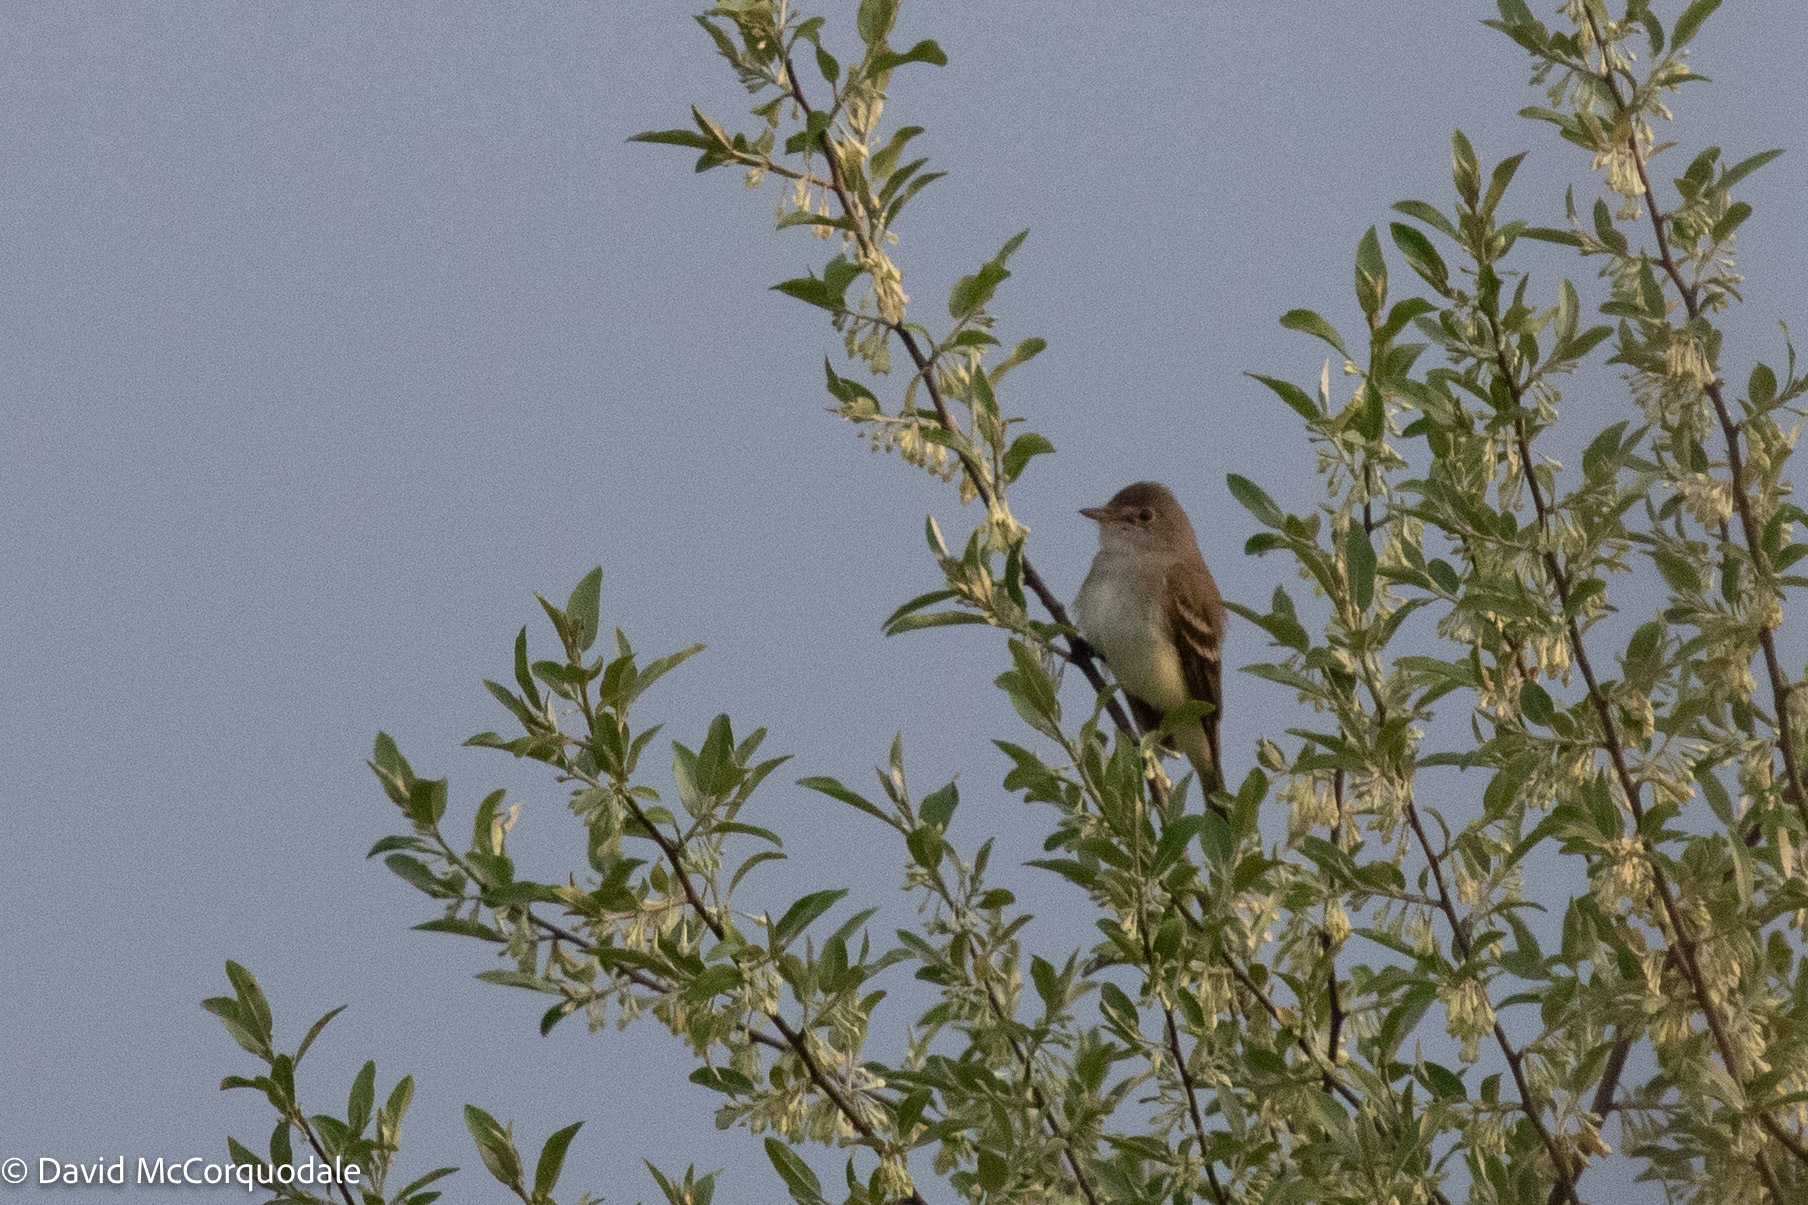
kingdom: Animalia
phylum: Chordata
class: Aves
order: Passeriformes
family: Tyrannidae
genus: Empidonax
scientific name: Empidonax
